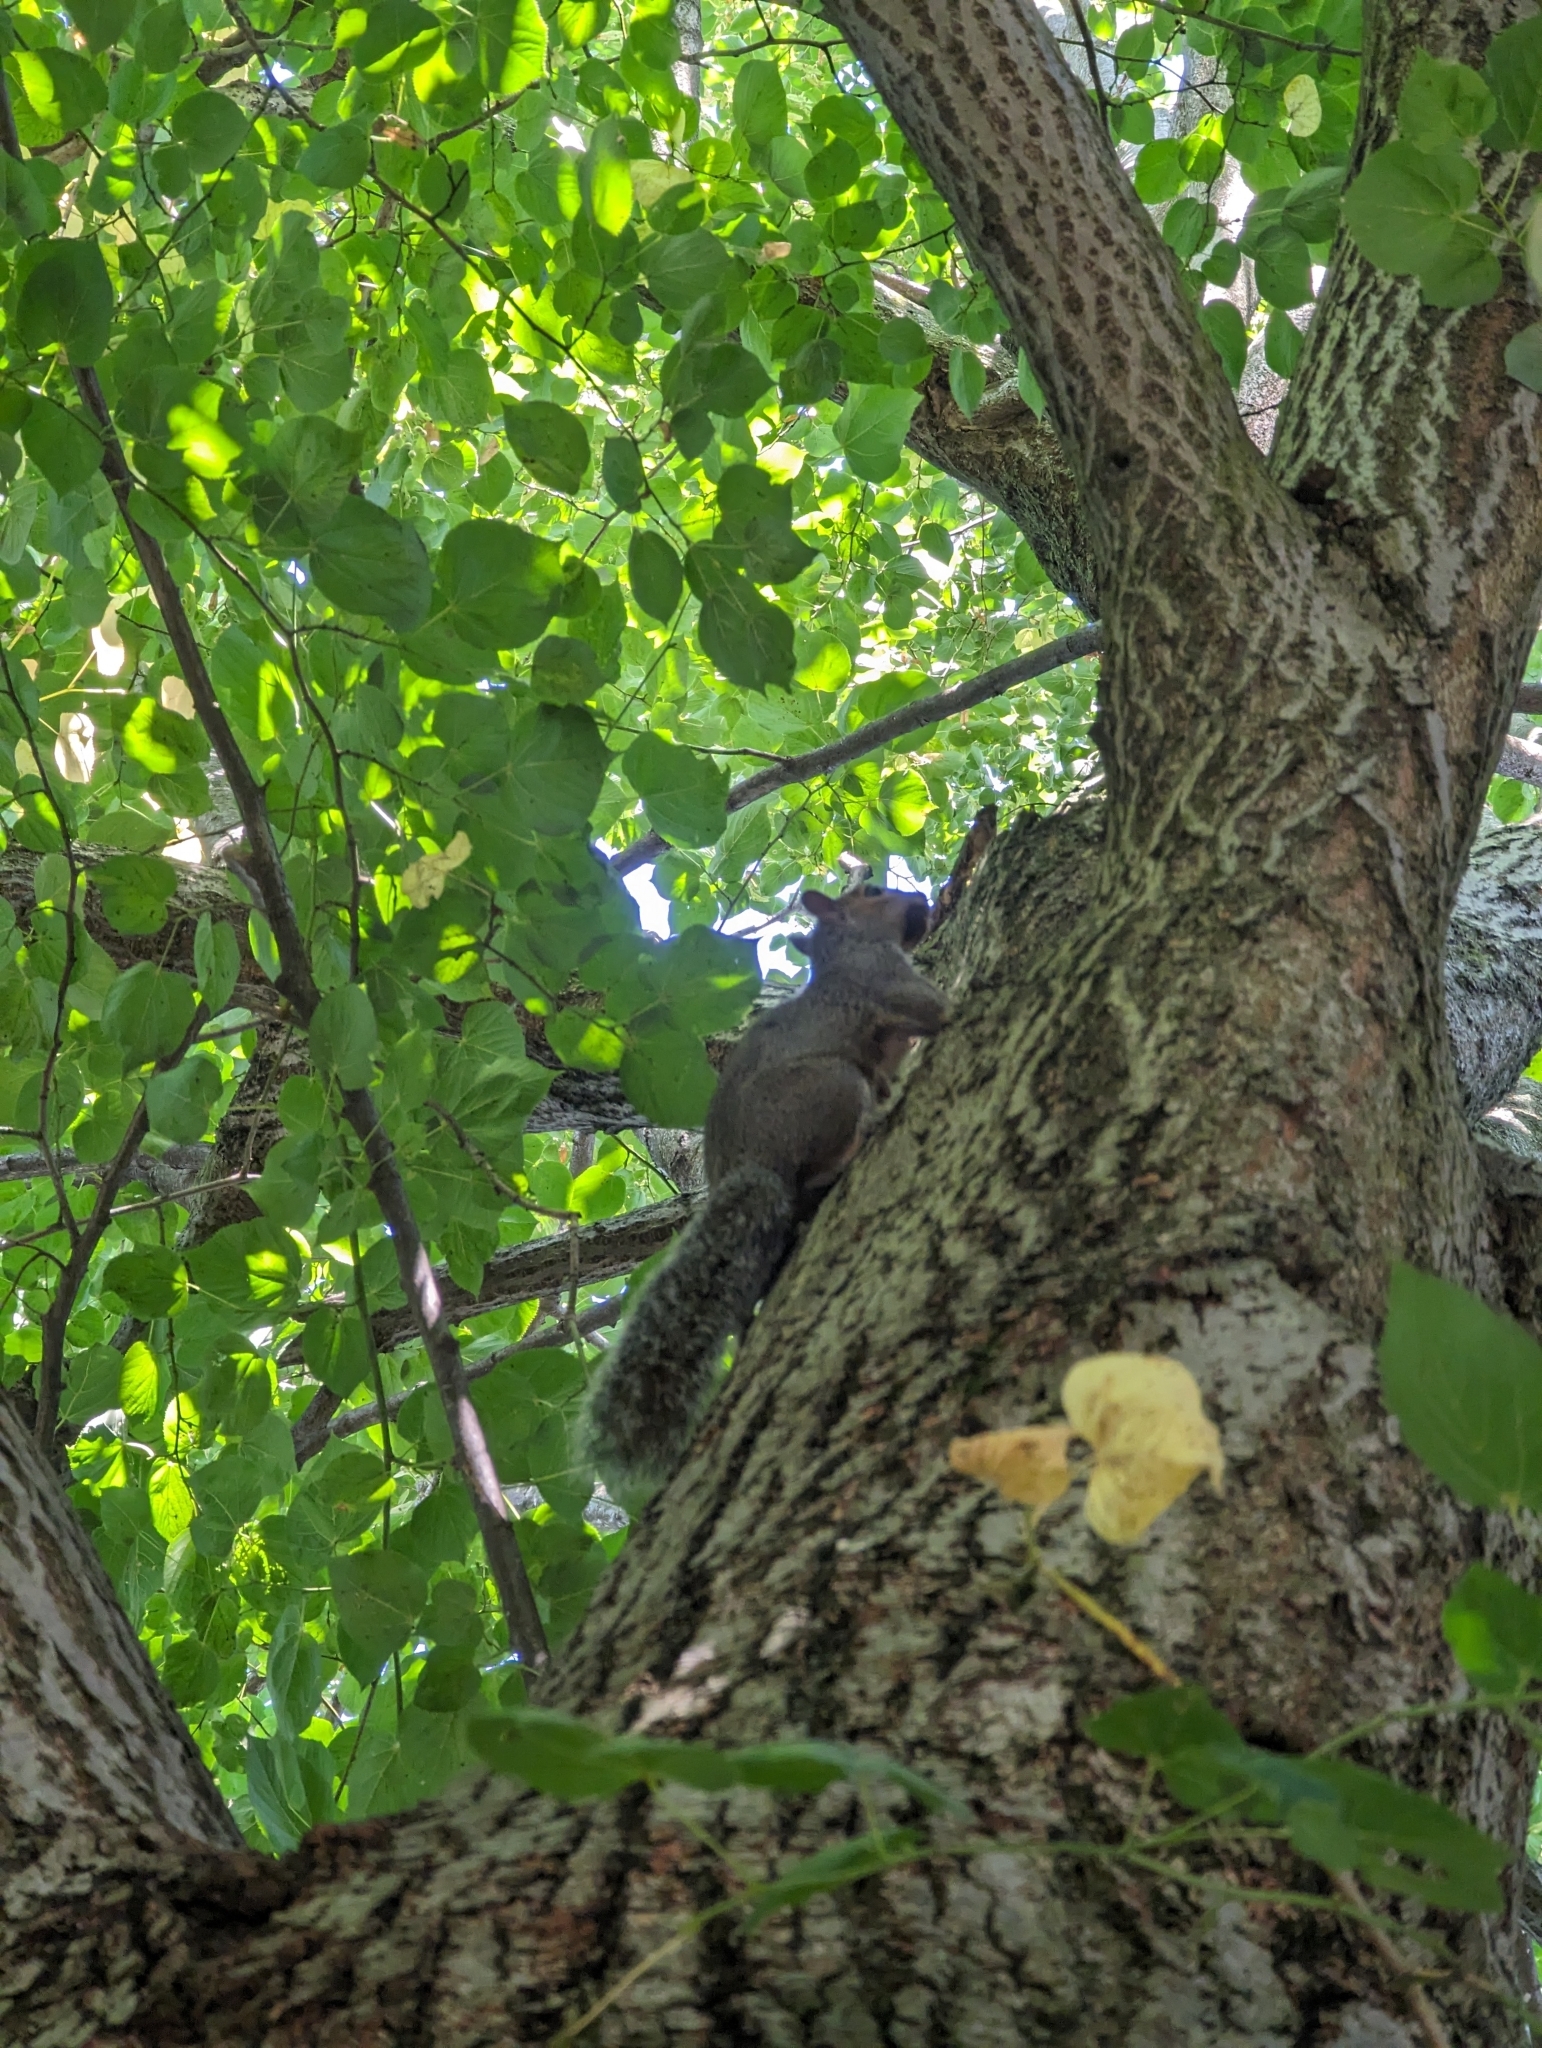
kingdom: Animalia
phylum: Chordata
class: Mammalia
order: Rodentia
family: Sciuridae
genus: Sciurus
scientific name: Sciurus carolinensis
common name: Eastern gray squirrel
